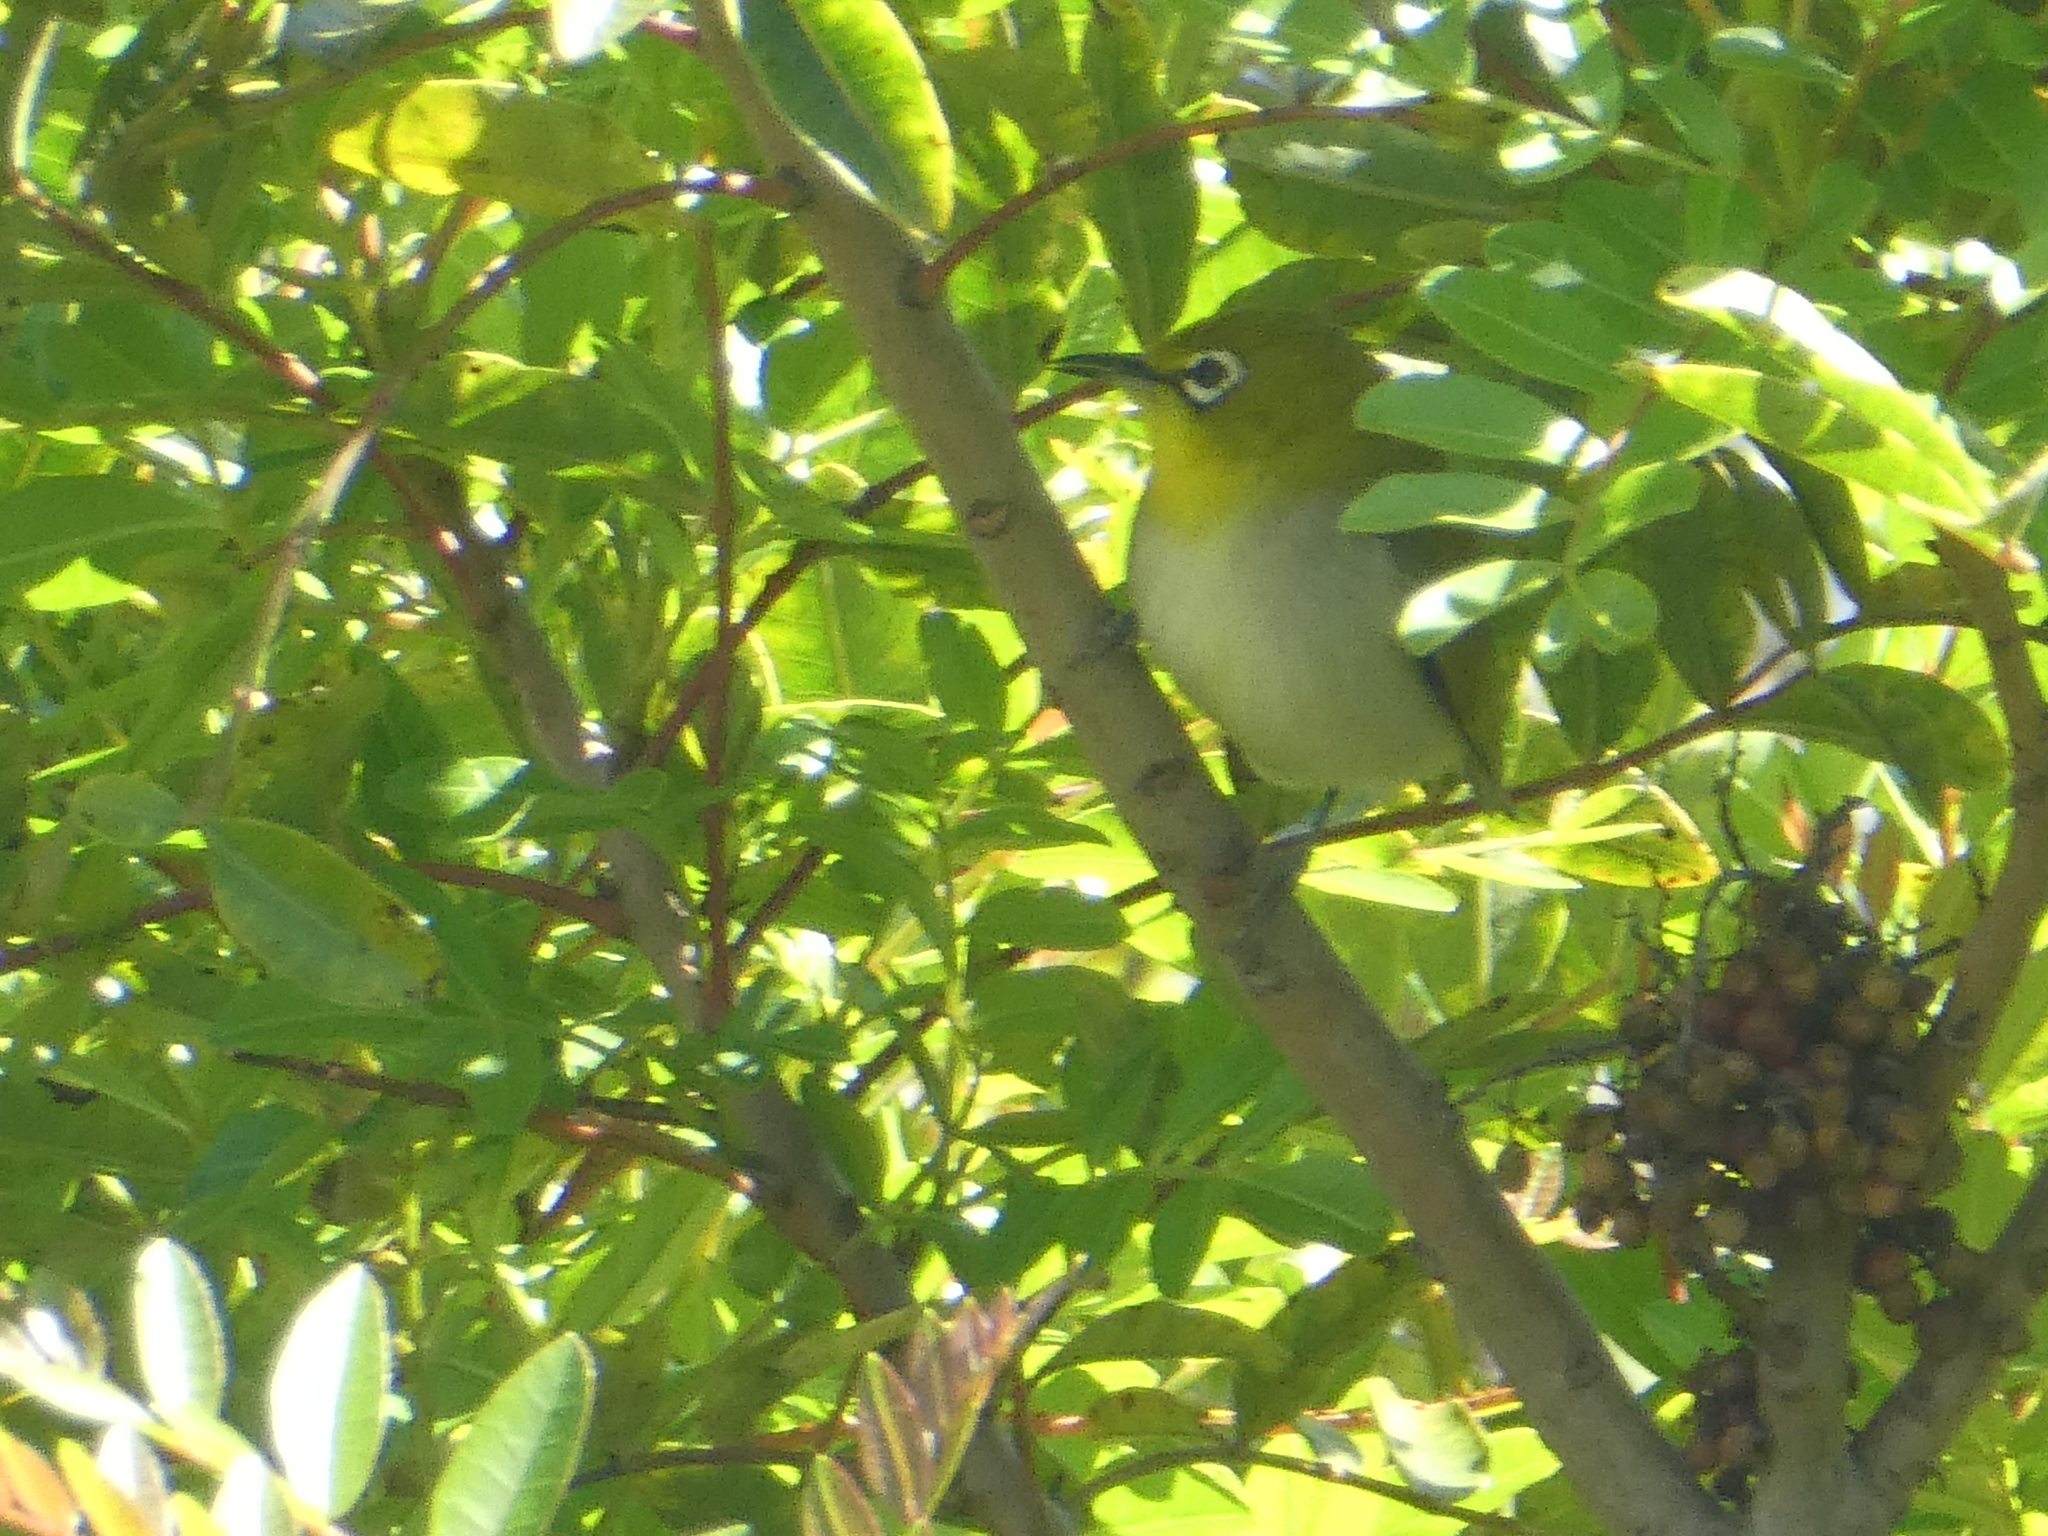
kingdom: Animalia
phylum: Chordata
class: Aves
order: Passeriformes
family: Zosteropidae
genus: Zosterops
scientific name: Zosterops simplex
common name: Swinhoe's white-eye
